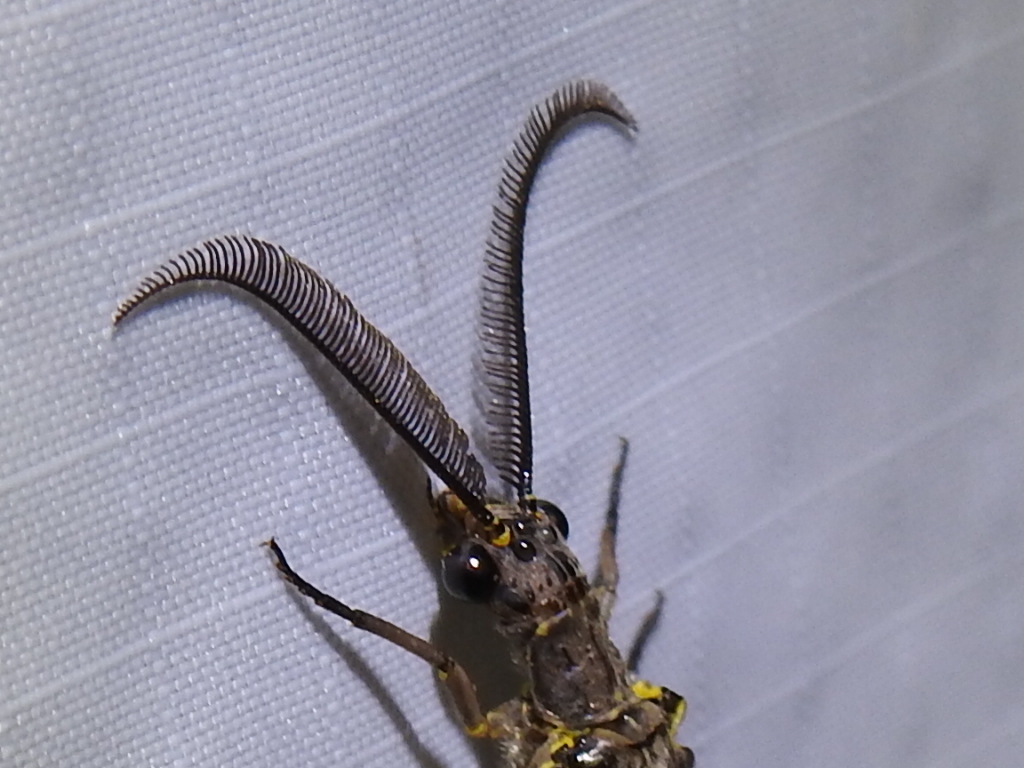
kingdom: Animalia
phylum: Arthropoda
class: Insecta
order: Megaloptera
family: Corydalidae
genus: Chauliodes
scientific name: Chauliodes rastricornis
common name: Spring fishfly
